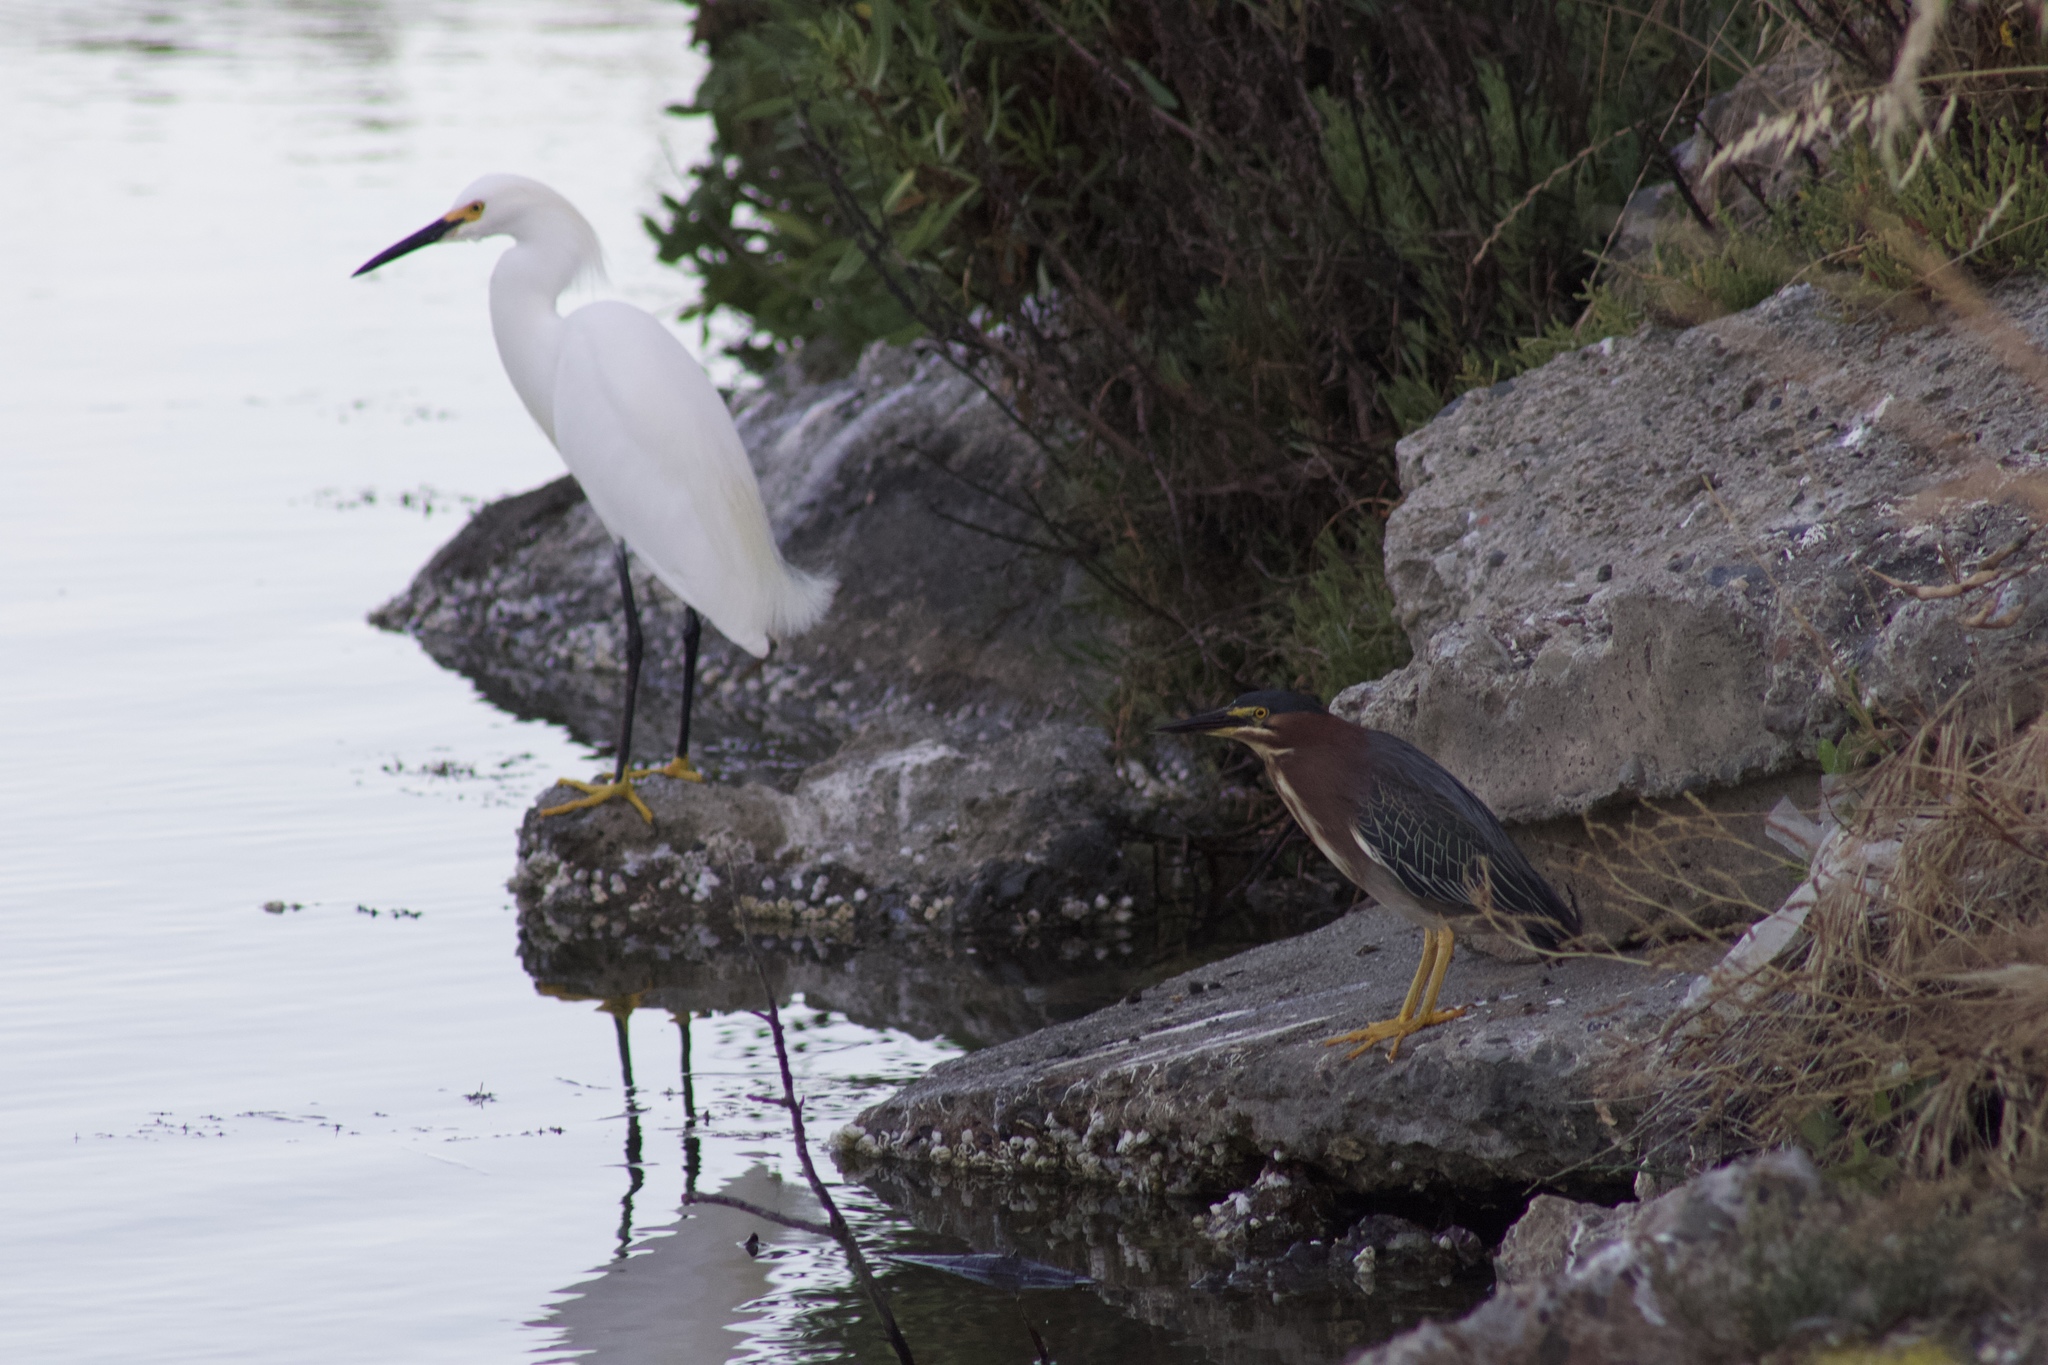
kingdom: Animalia
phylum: Chordata
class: Aves
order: Pelecaniformes
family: Ardeidae
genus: Butorides
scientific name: Butorides virescens
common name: Green heron
